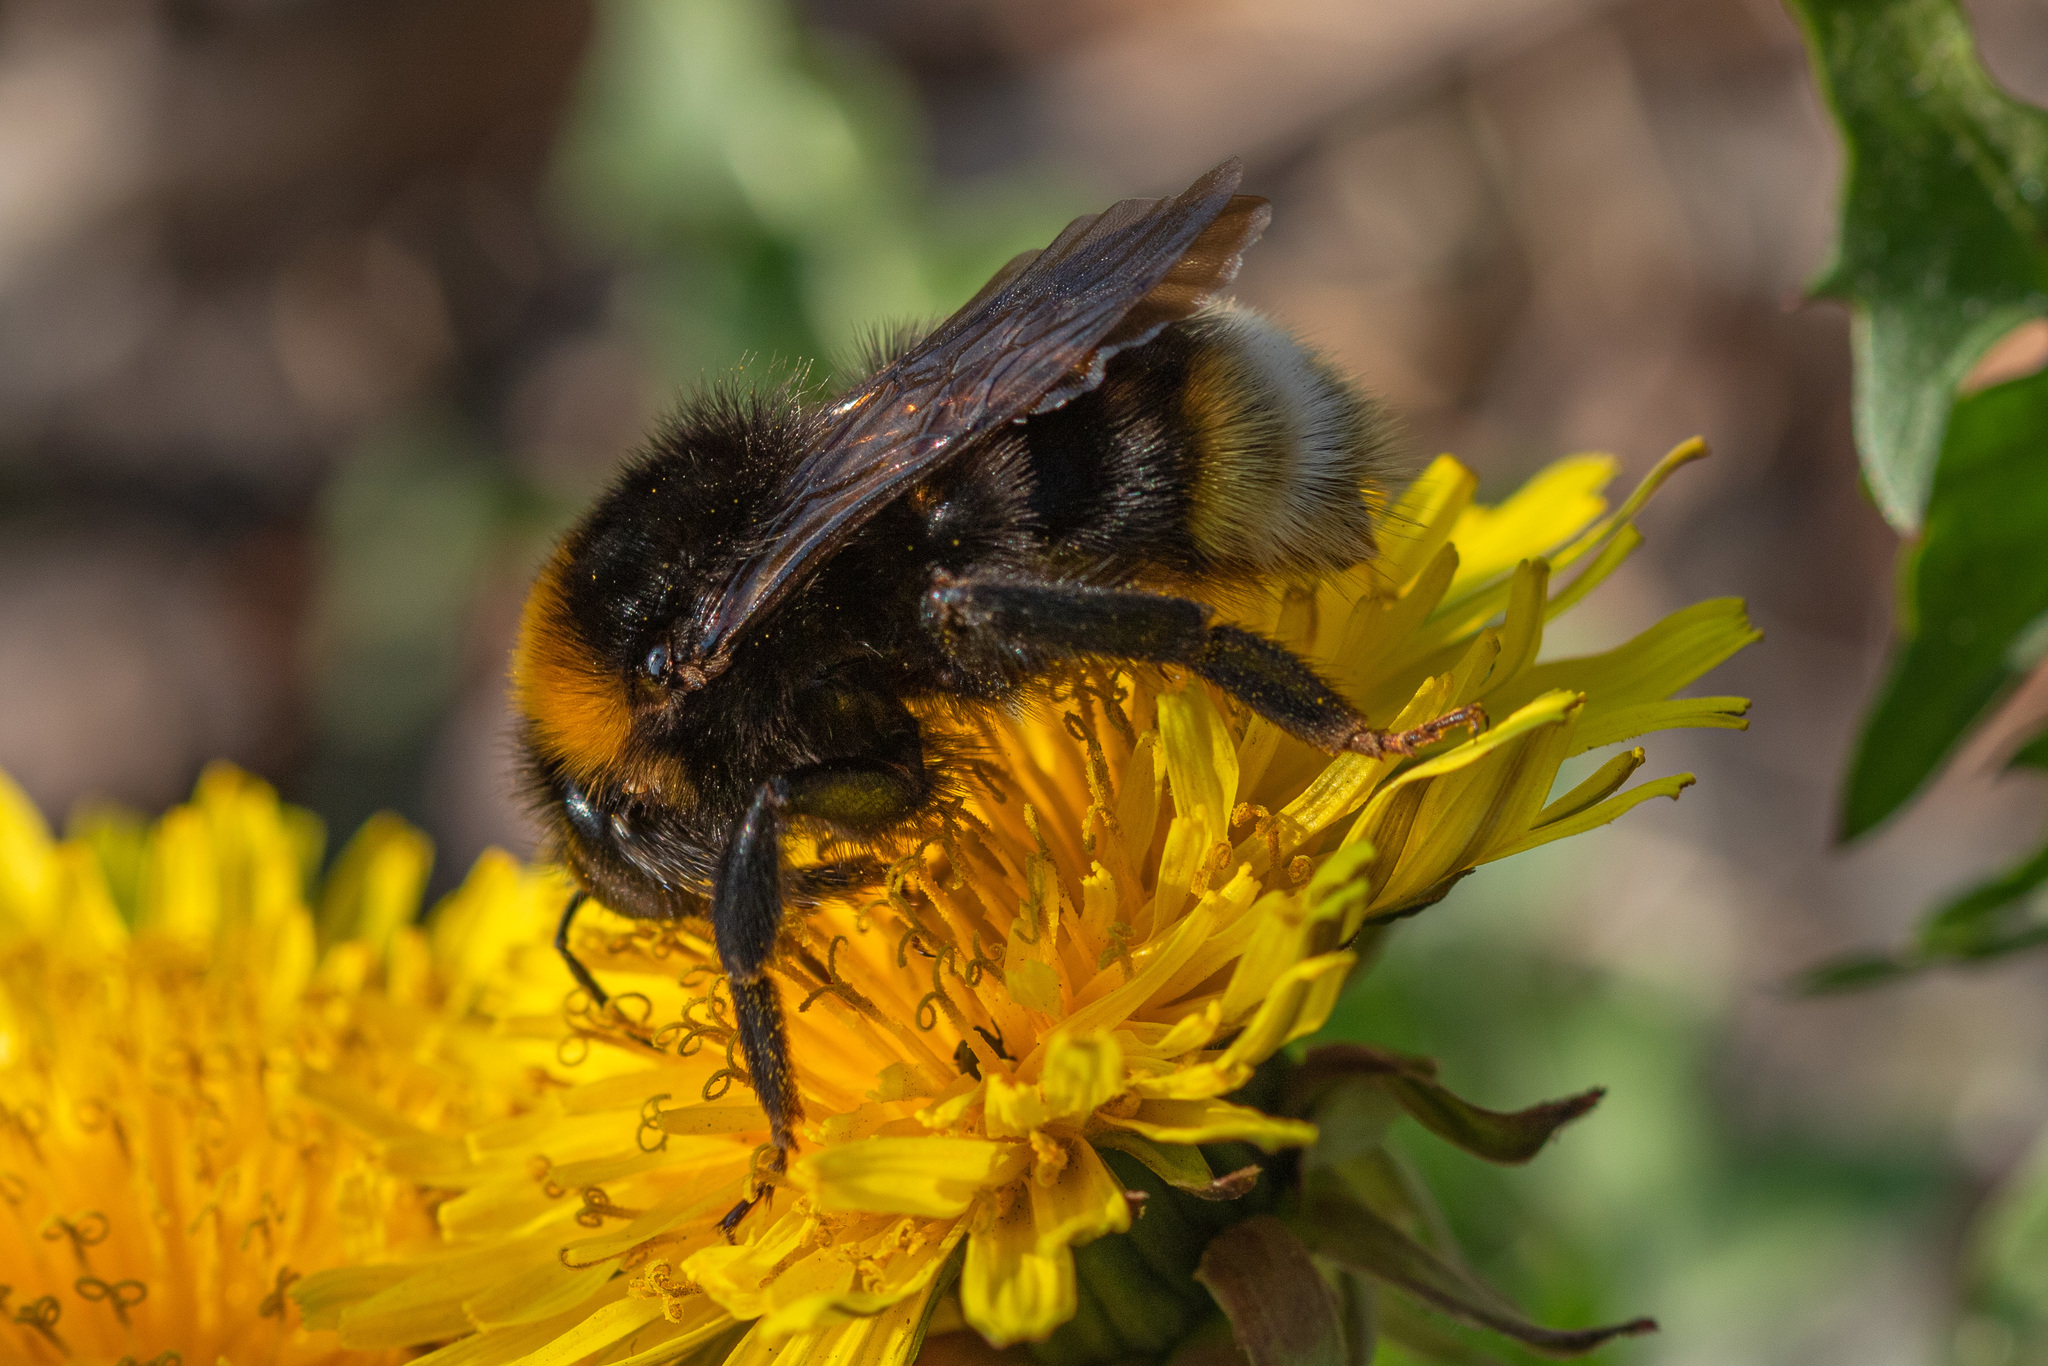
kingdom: Animalia
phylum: Arthropoda
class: Insecta
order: Hymenoptera
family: Apidae
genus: Bombus
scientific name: Bombus vestalis
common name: Vestal cuckoo bee
